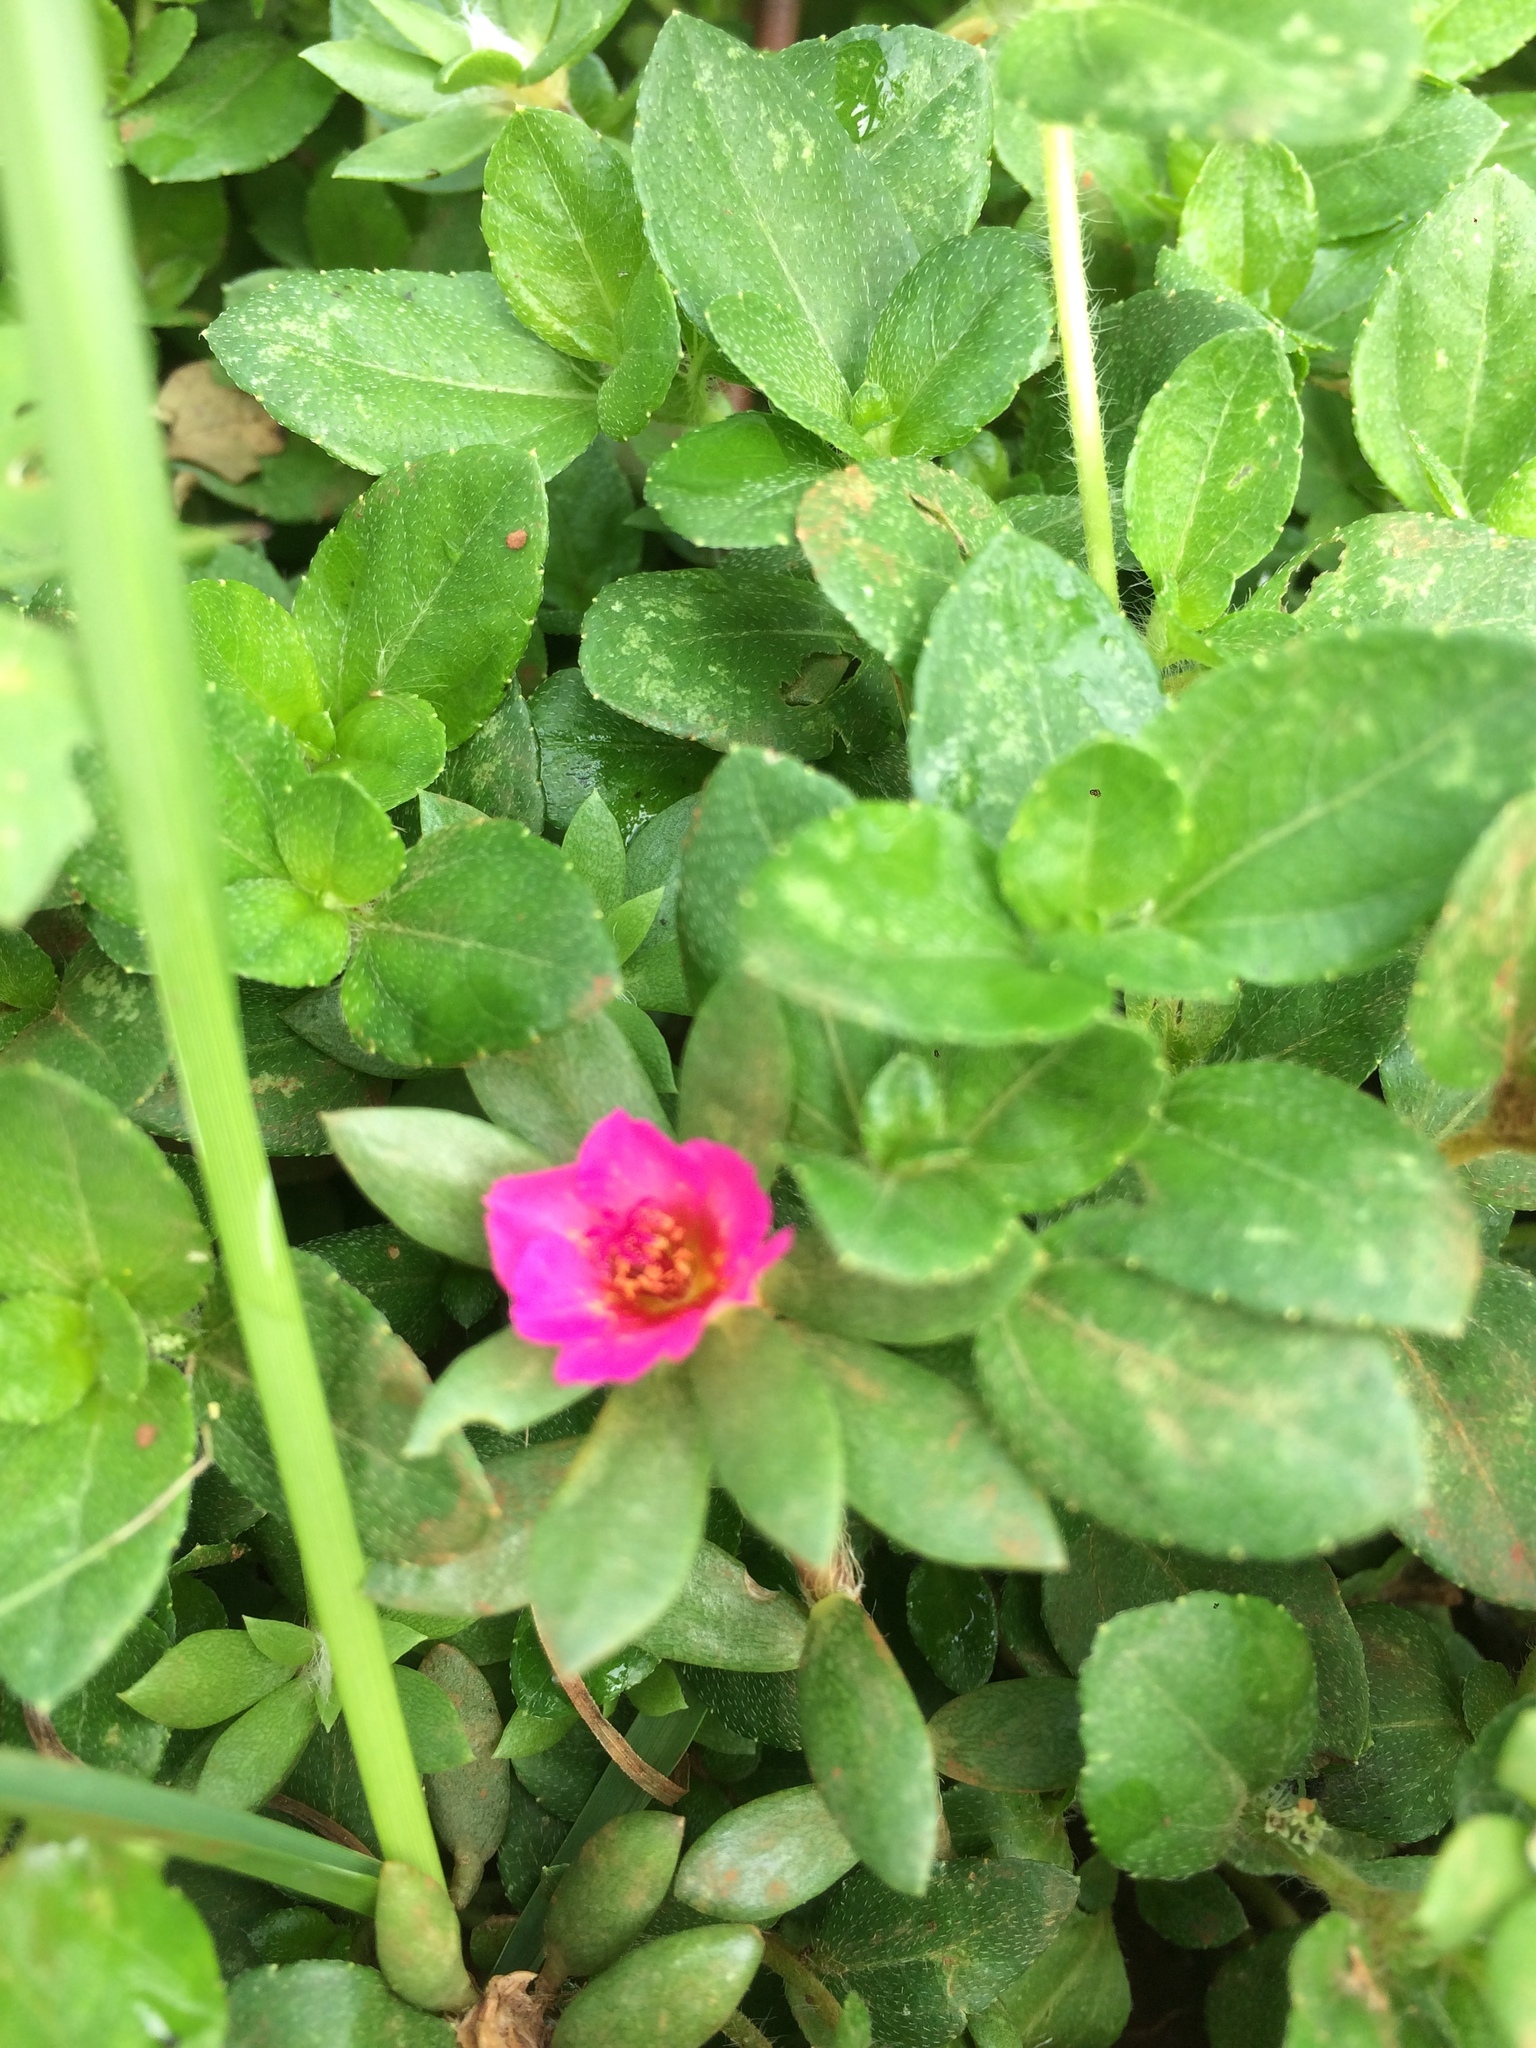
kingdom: Plantae
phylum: Tracheophyta
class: Magnoliopsida
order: Caryophyllales
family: Portulacaceae
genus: Portulaca
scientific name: Portulaca amilis
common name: Paraguayan purslane
